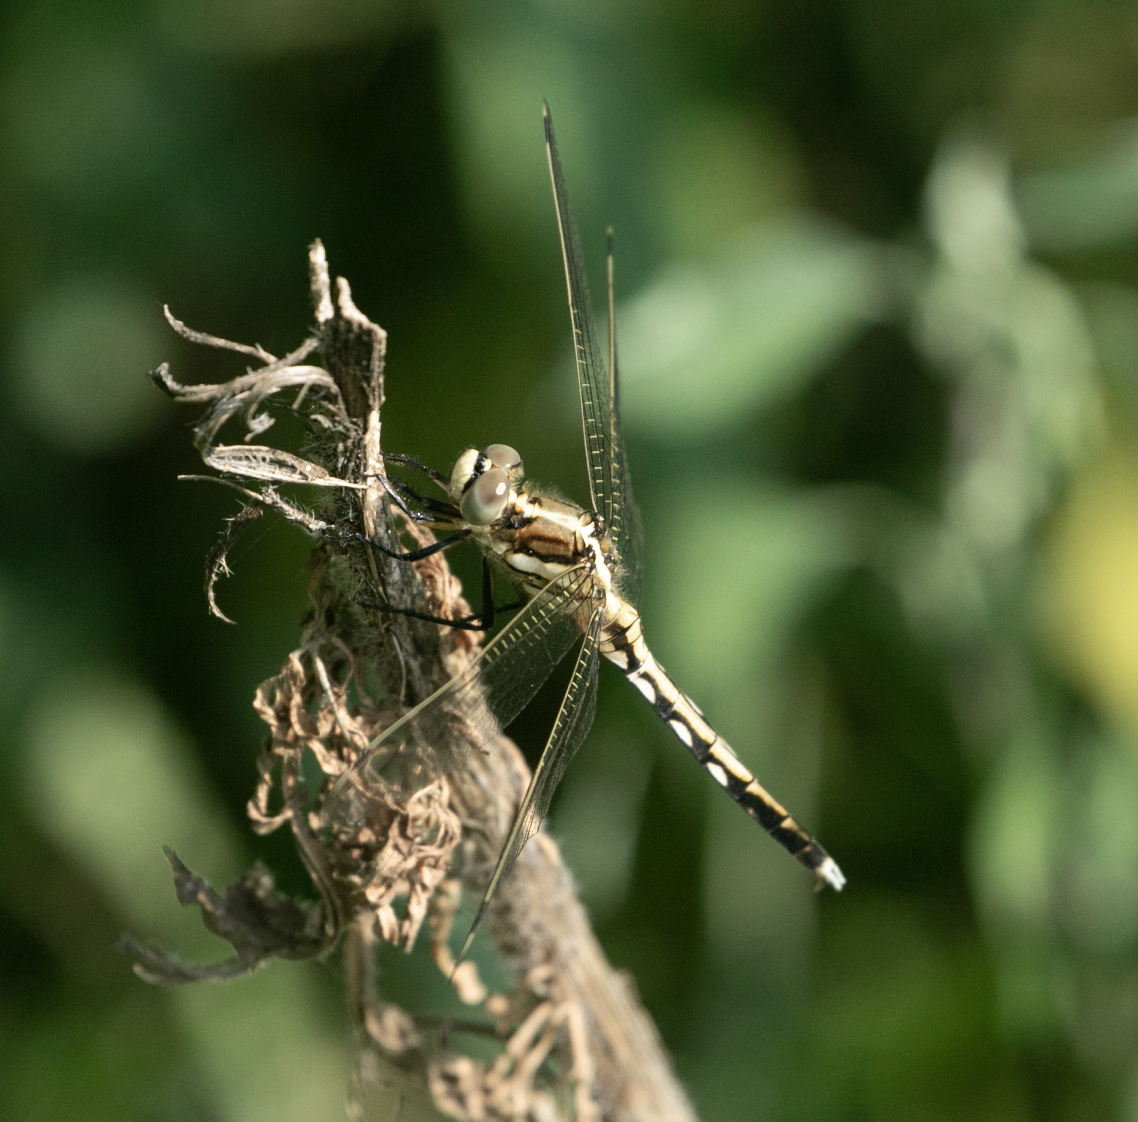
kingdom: Animalia
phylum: Arthropoda
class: Insecta
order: Odonata
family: Libellulidae
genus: Orthetrum
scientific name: Orthetrum albistylum
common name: White-tailed skimmer
